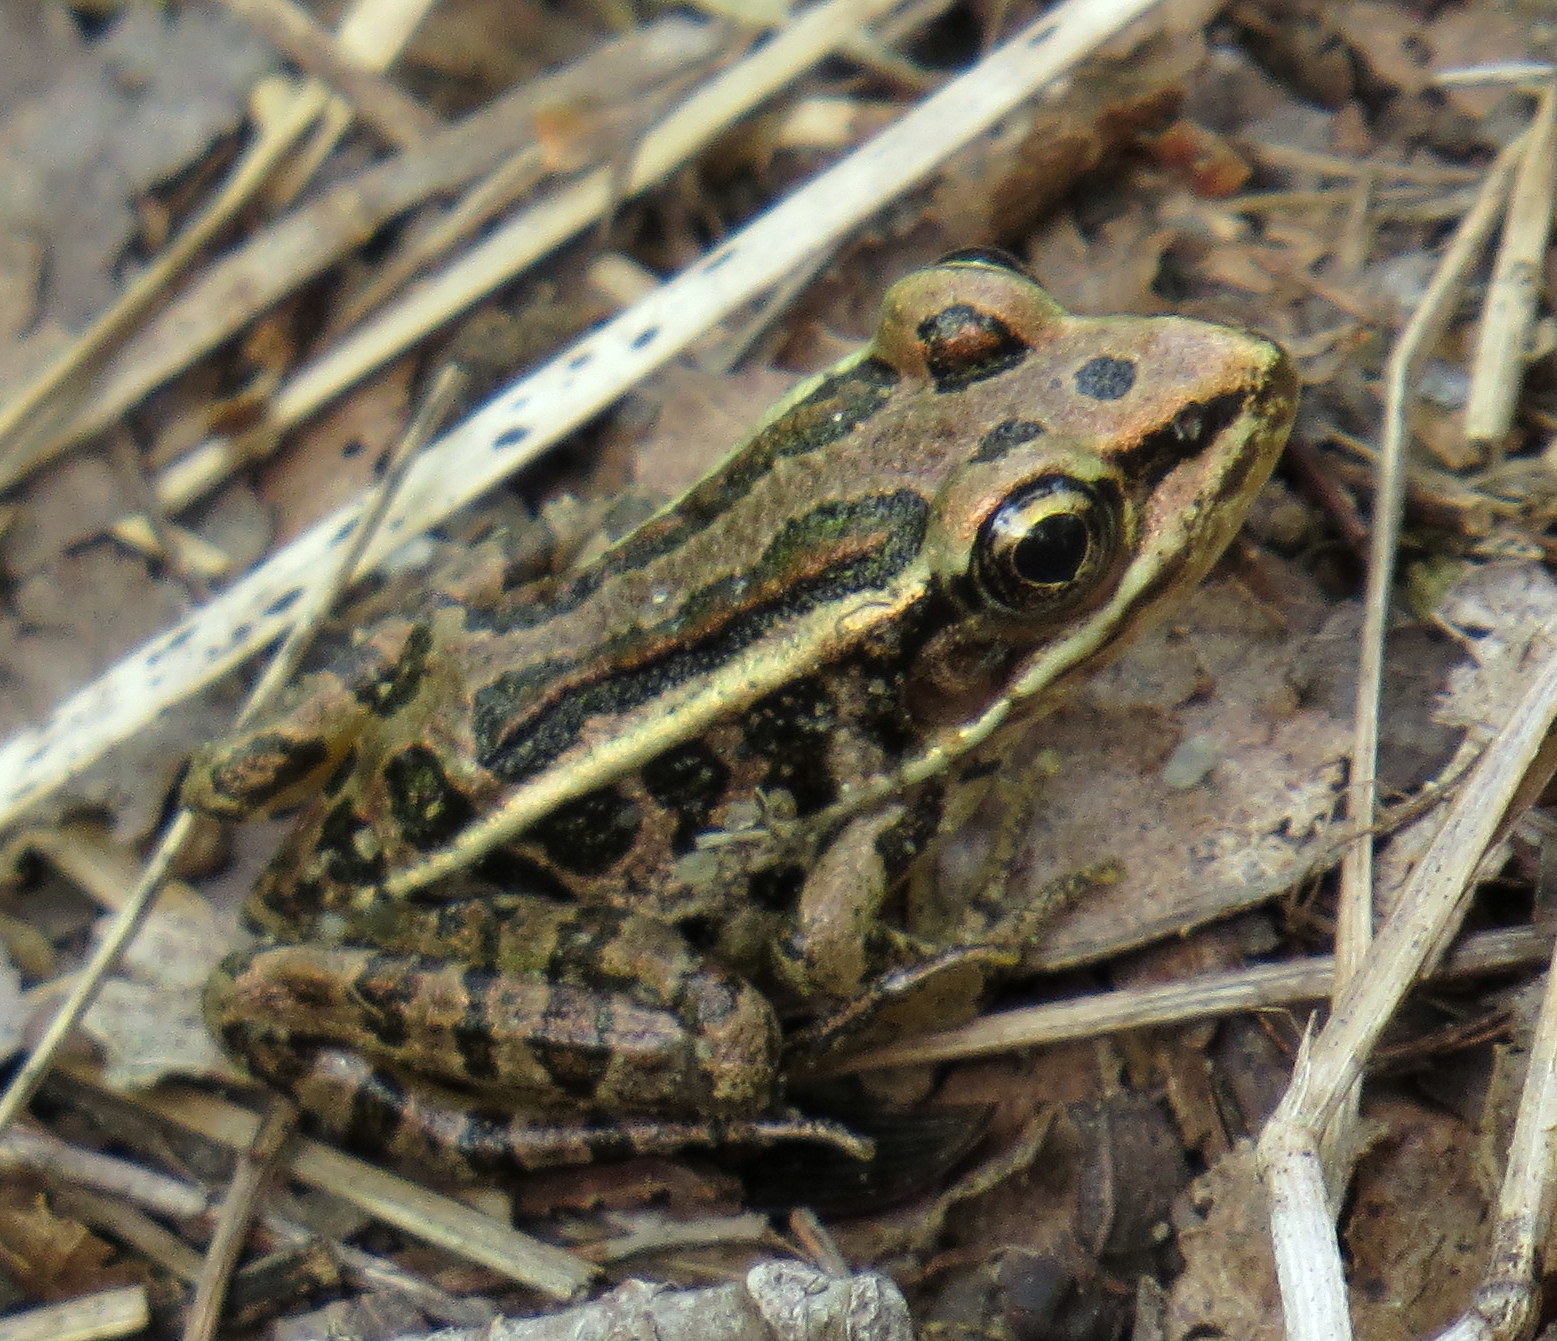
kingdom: Animalia
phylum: Chordata
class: Amphibia
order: Anura
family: Ranidae
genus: Lithobates
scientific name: Lithobates palustris
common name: Pickerel frog
